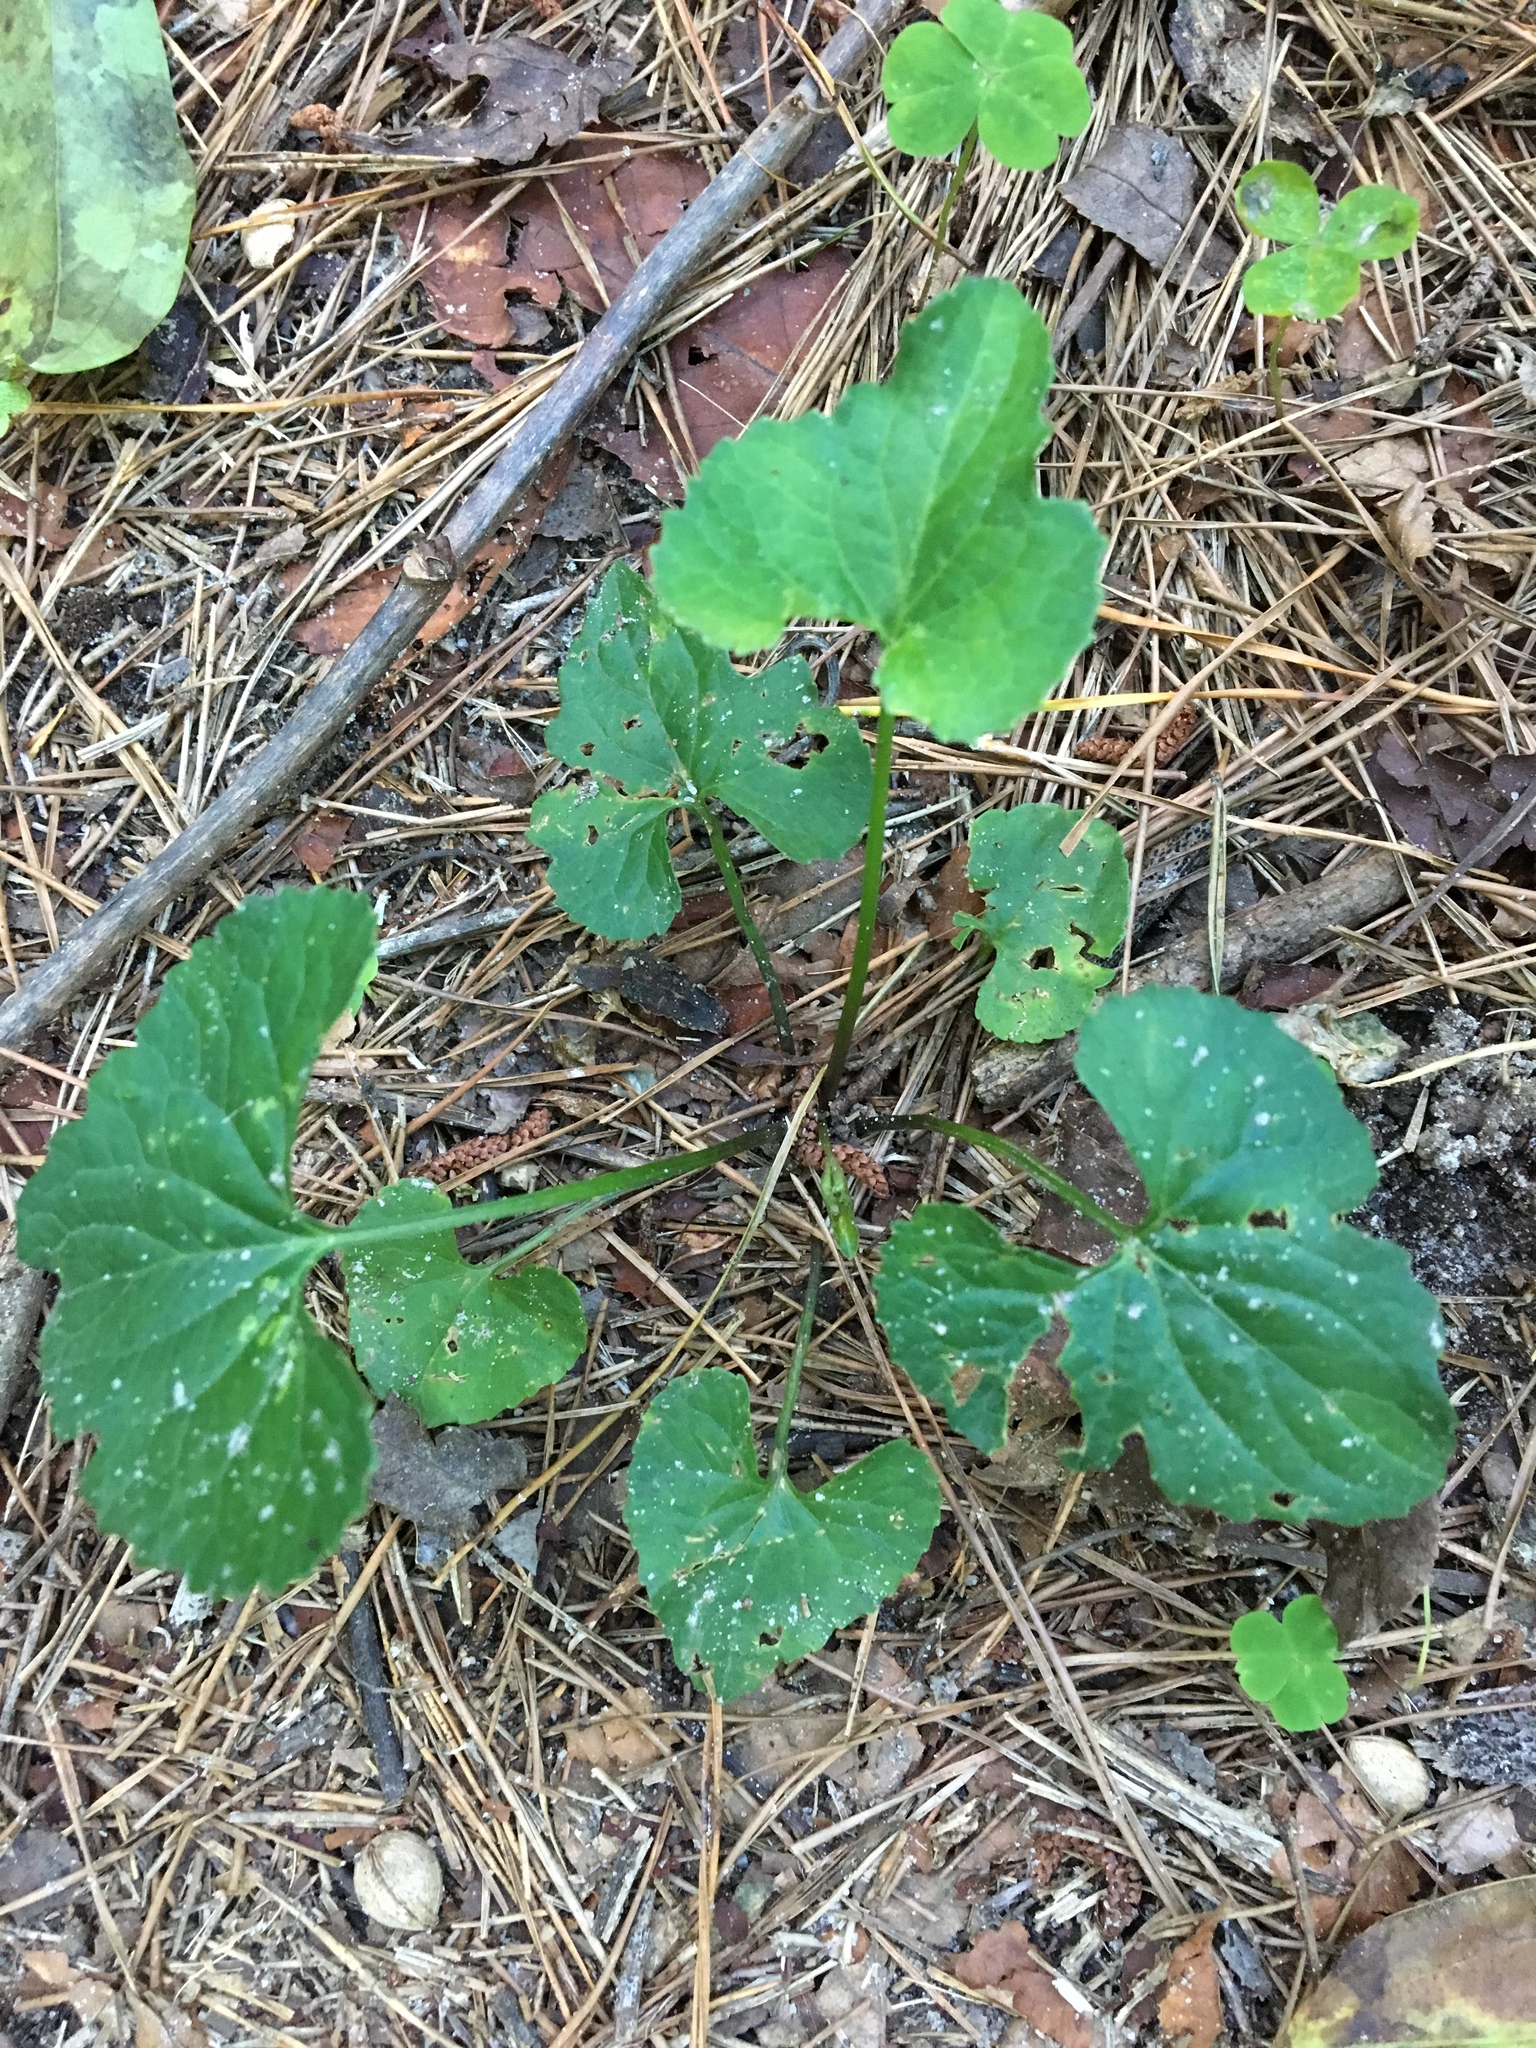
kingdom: Plantae
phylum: Tracheophyta
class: Magnoliopsida
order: Malpighiales
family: Violaceae
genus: Viola
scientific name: Viola sororia
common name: Dooryard violet
